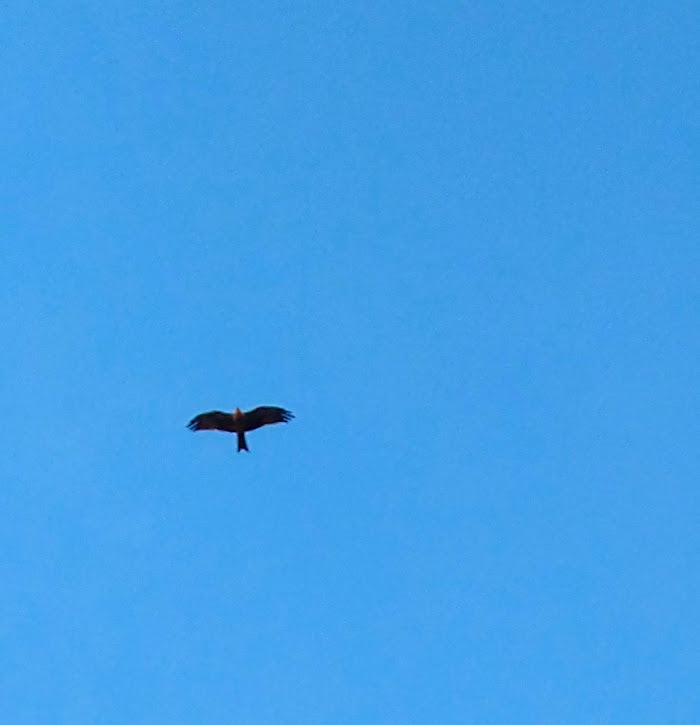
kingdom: Animalia
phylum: Chordata
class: Aves
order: Accipitriformes
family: Accipitridae
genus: Milvus
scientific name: Milvus migrans
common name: Black kite
